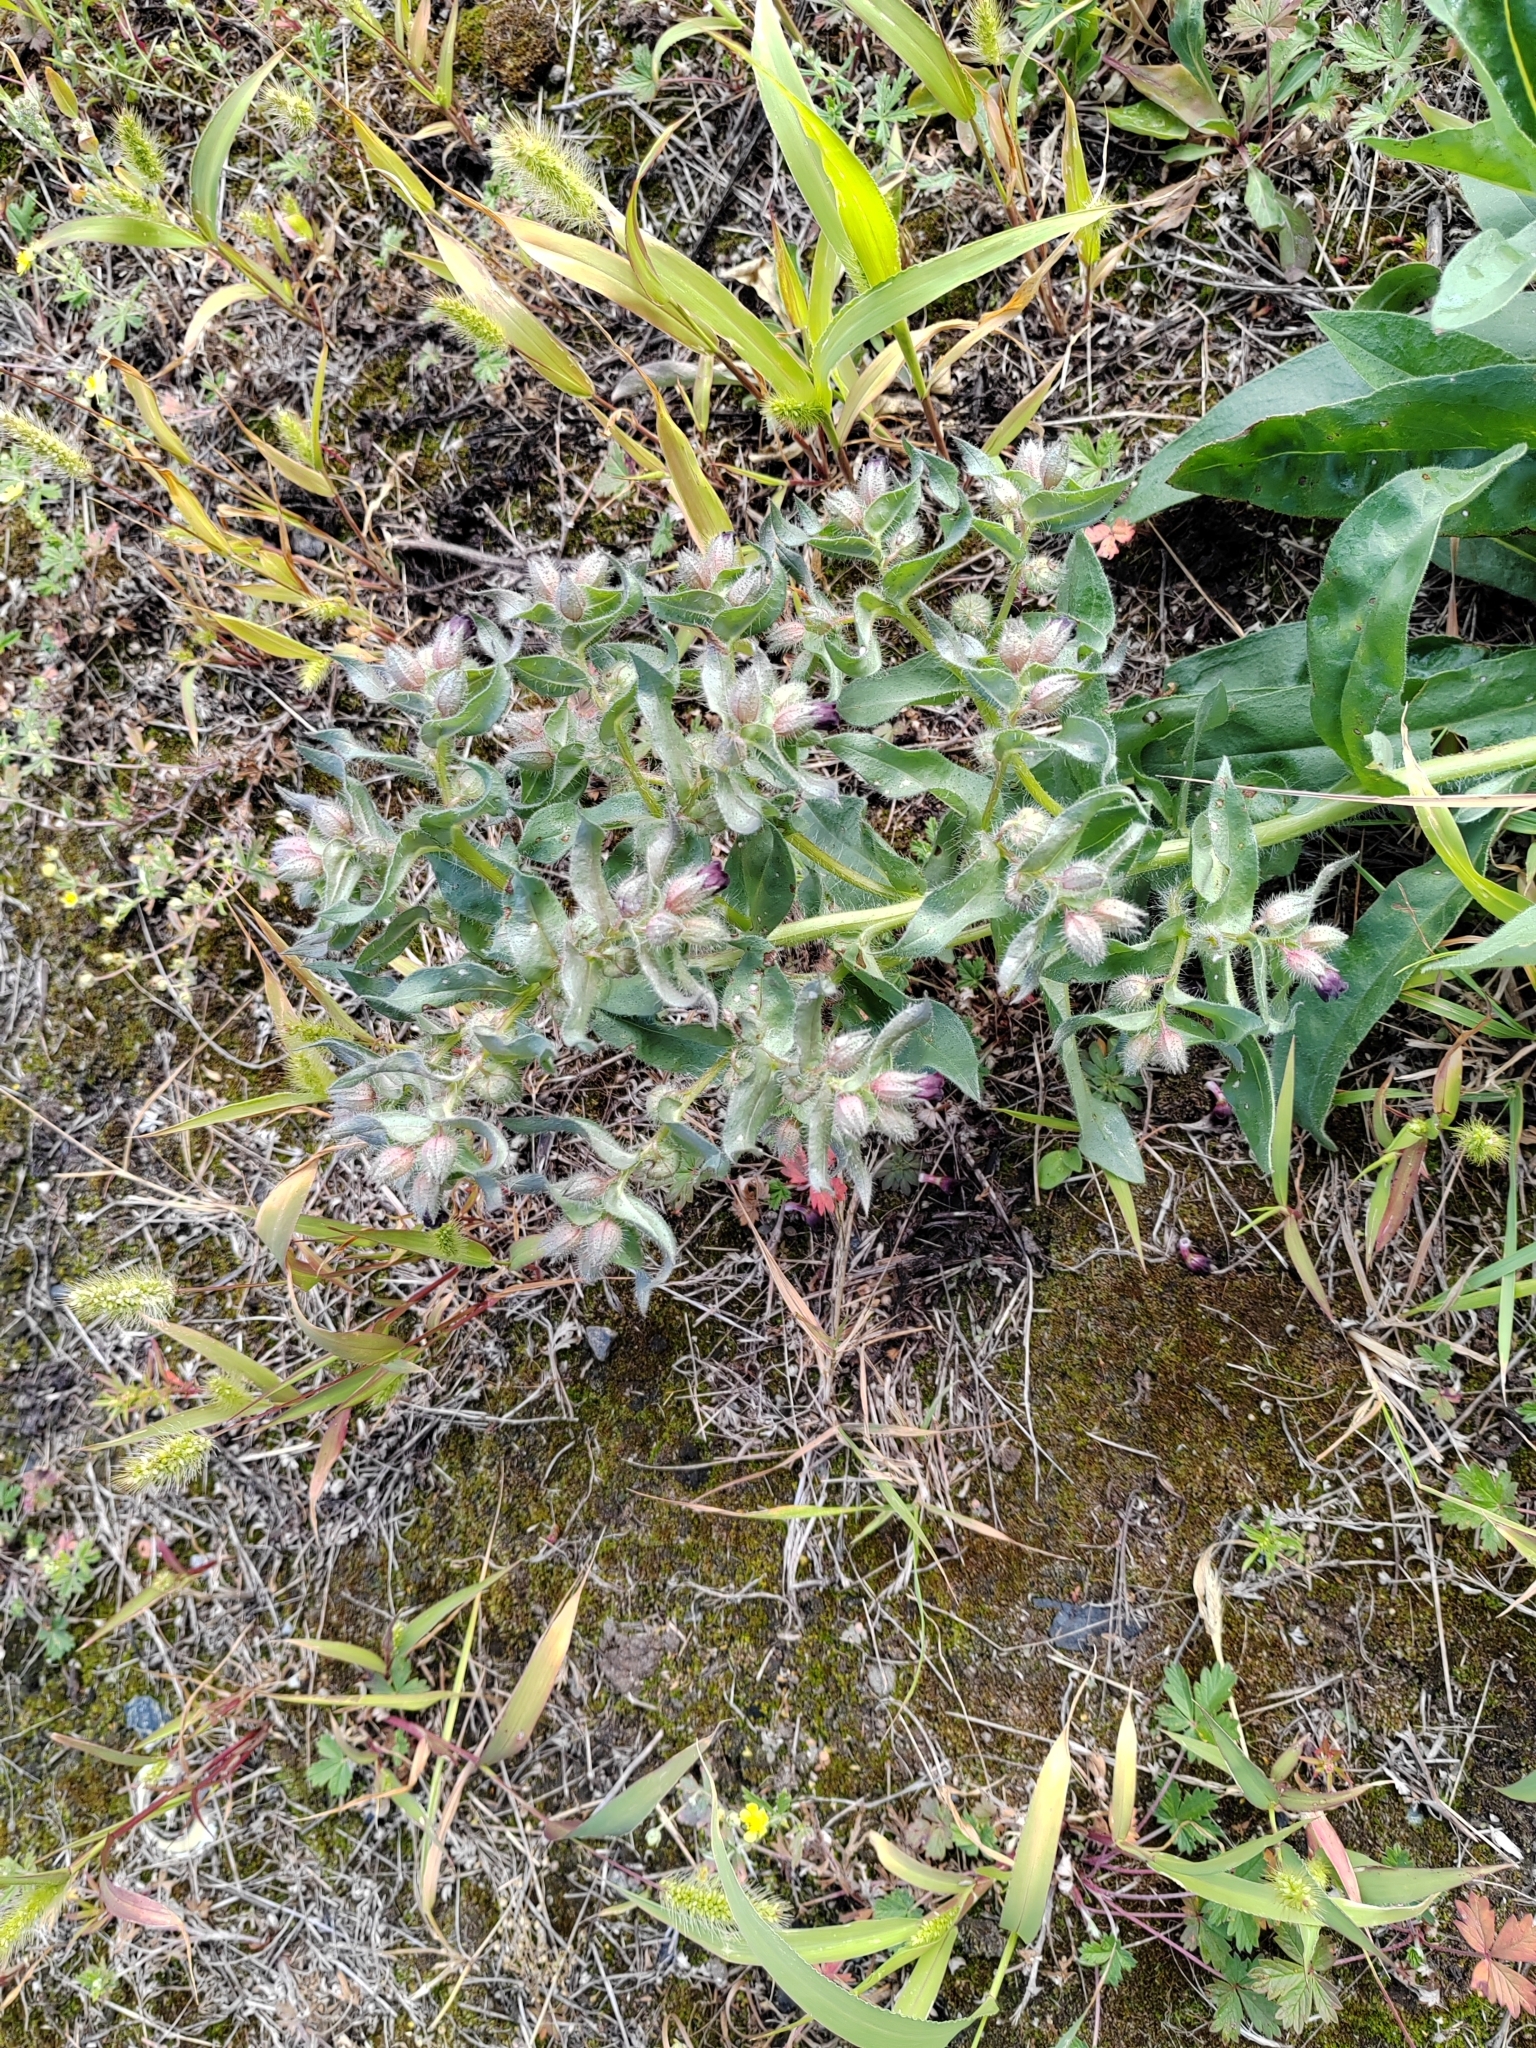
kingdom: Plantae
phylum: Tracheophyta
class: Magnoliopsida
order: Boraginales
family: Boraginaceae
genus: Nonea
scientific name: Nonea pulla
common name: Brown nonea
